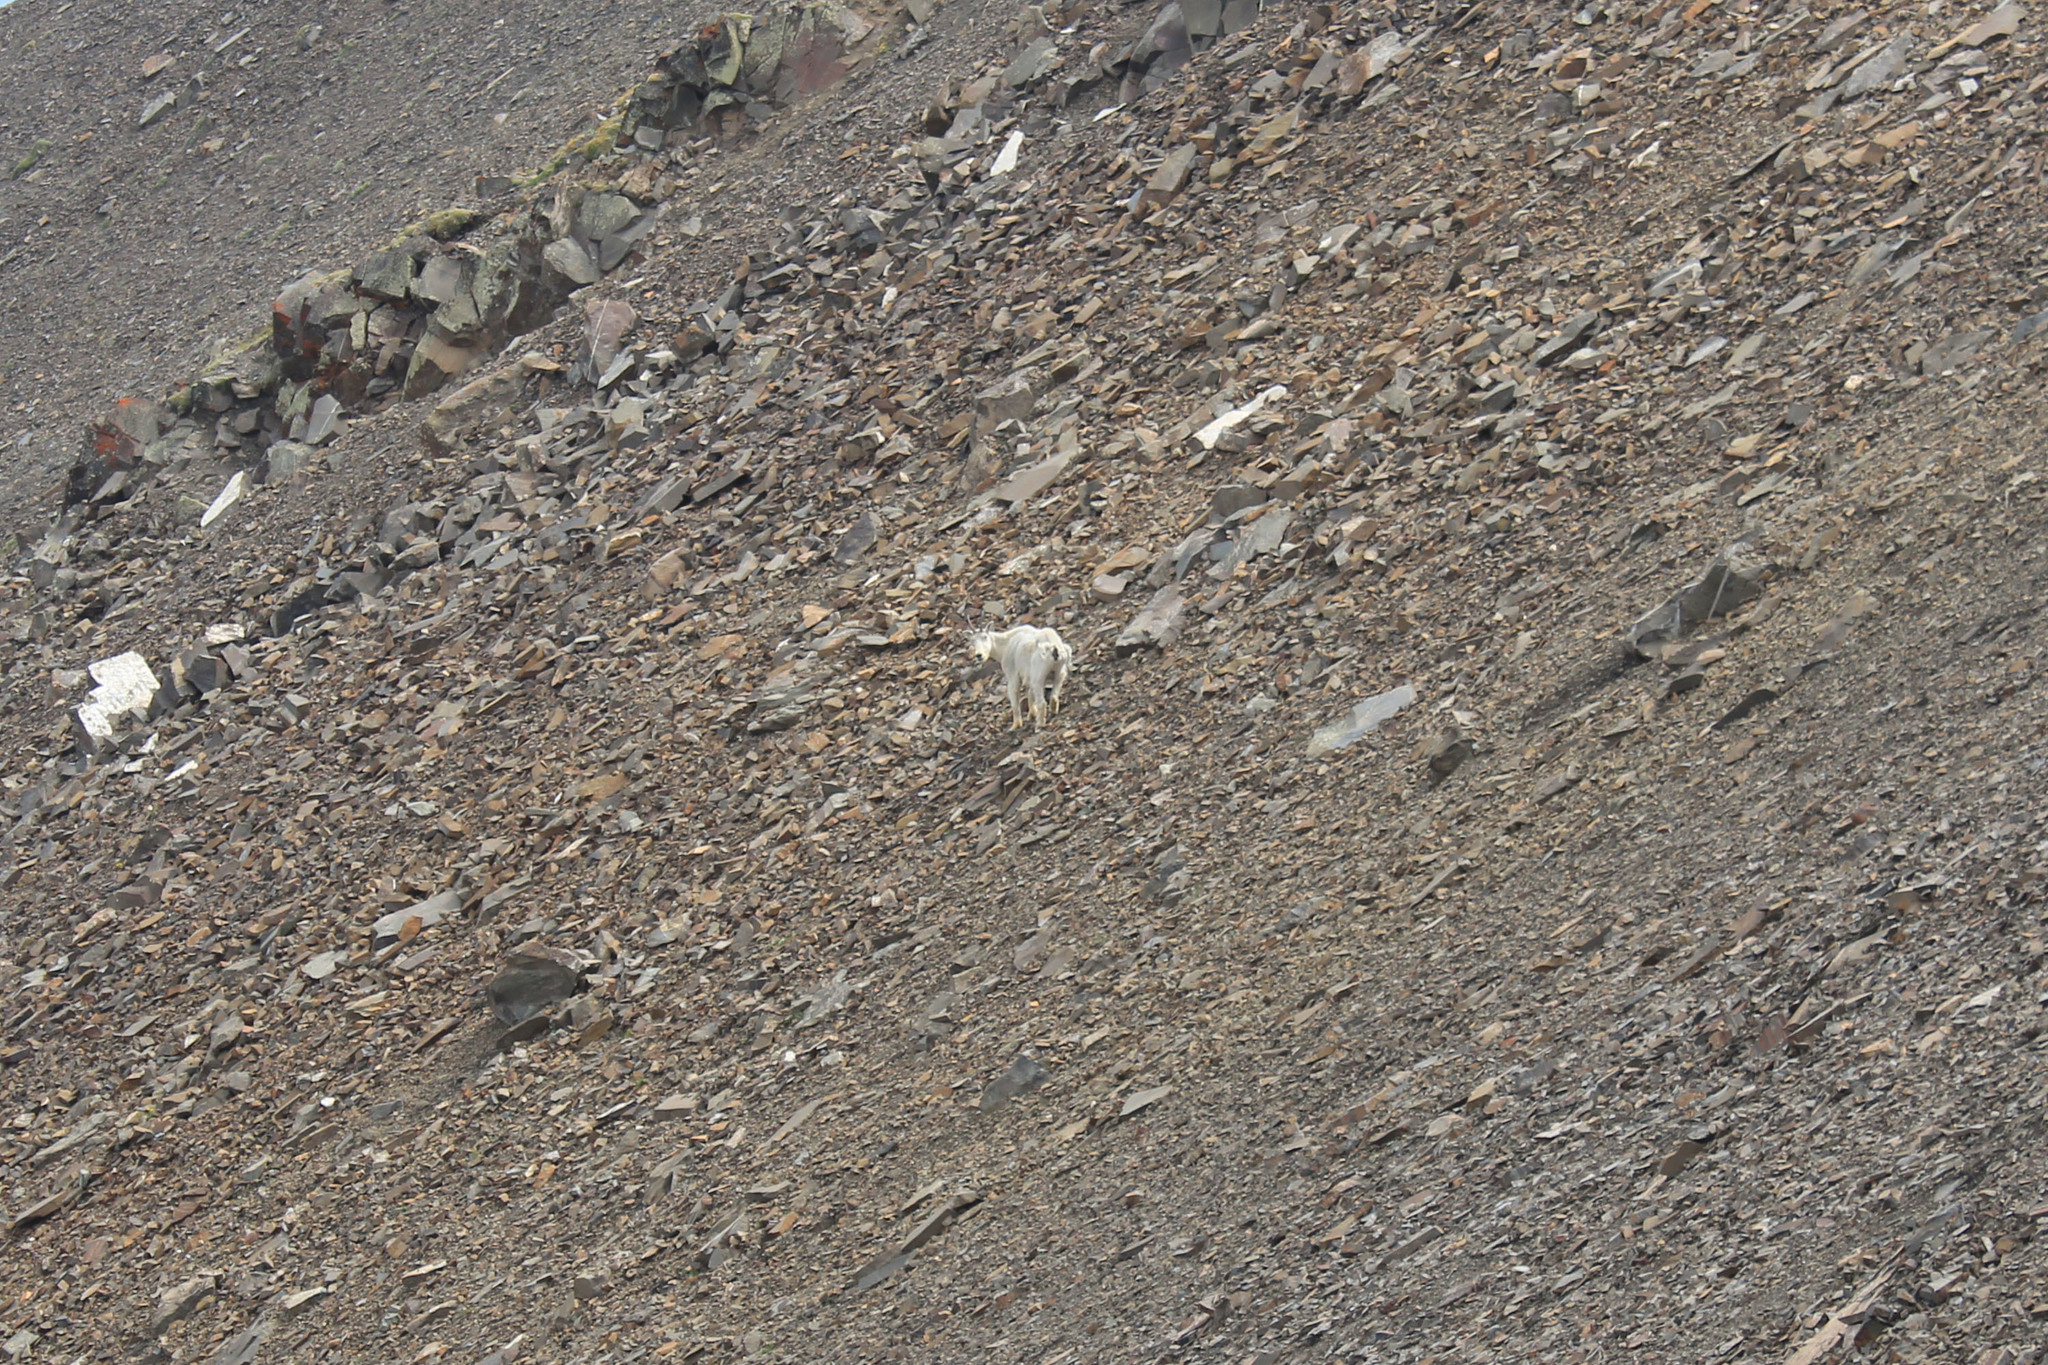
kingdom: Animalia
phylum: Chordata
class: Mammalia
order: Artiodactyla
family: Bovidae
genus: Oreamnos
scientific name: Oreamnos americanus
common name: Mountain goat
